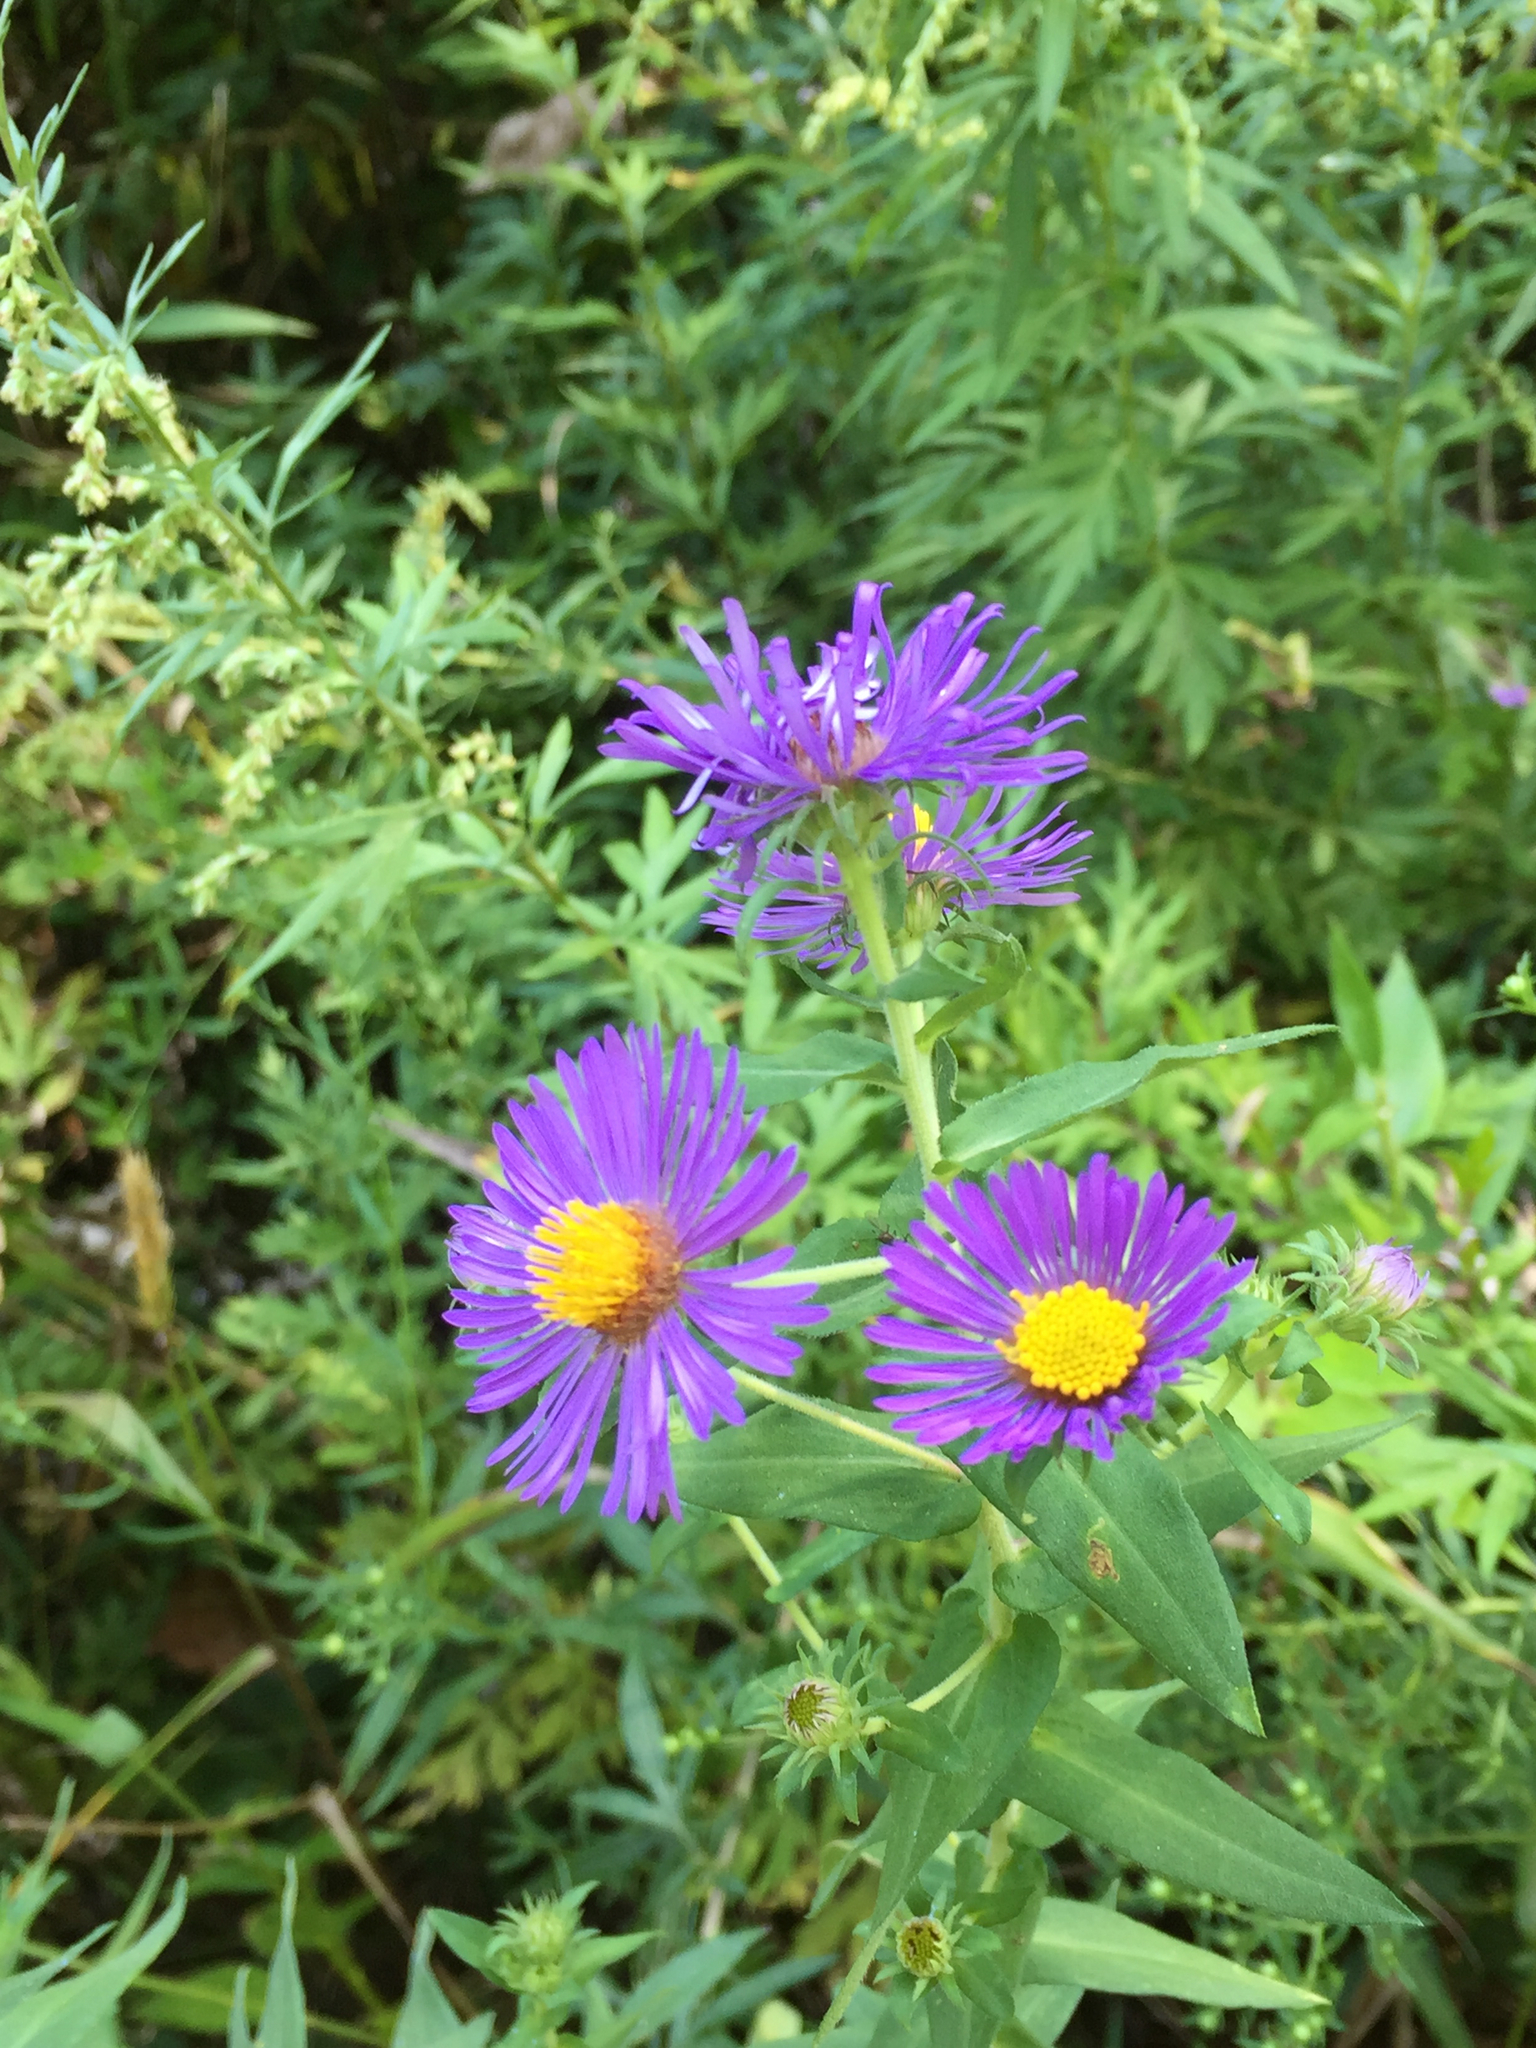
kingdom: Plantae
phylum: Tracheophyta
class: Magnoliopsida
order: Asterales
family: Asteraceae
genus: Symphyotrichum
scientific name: Symphyotrichum novae-angliae
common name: Michaelmas daisy
